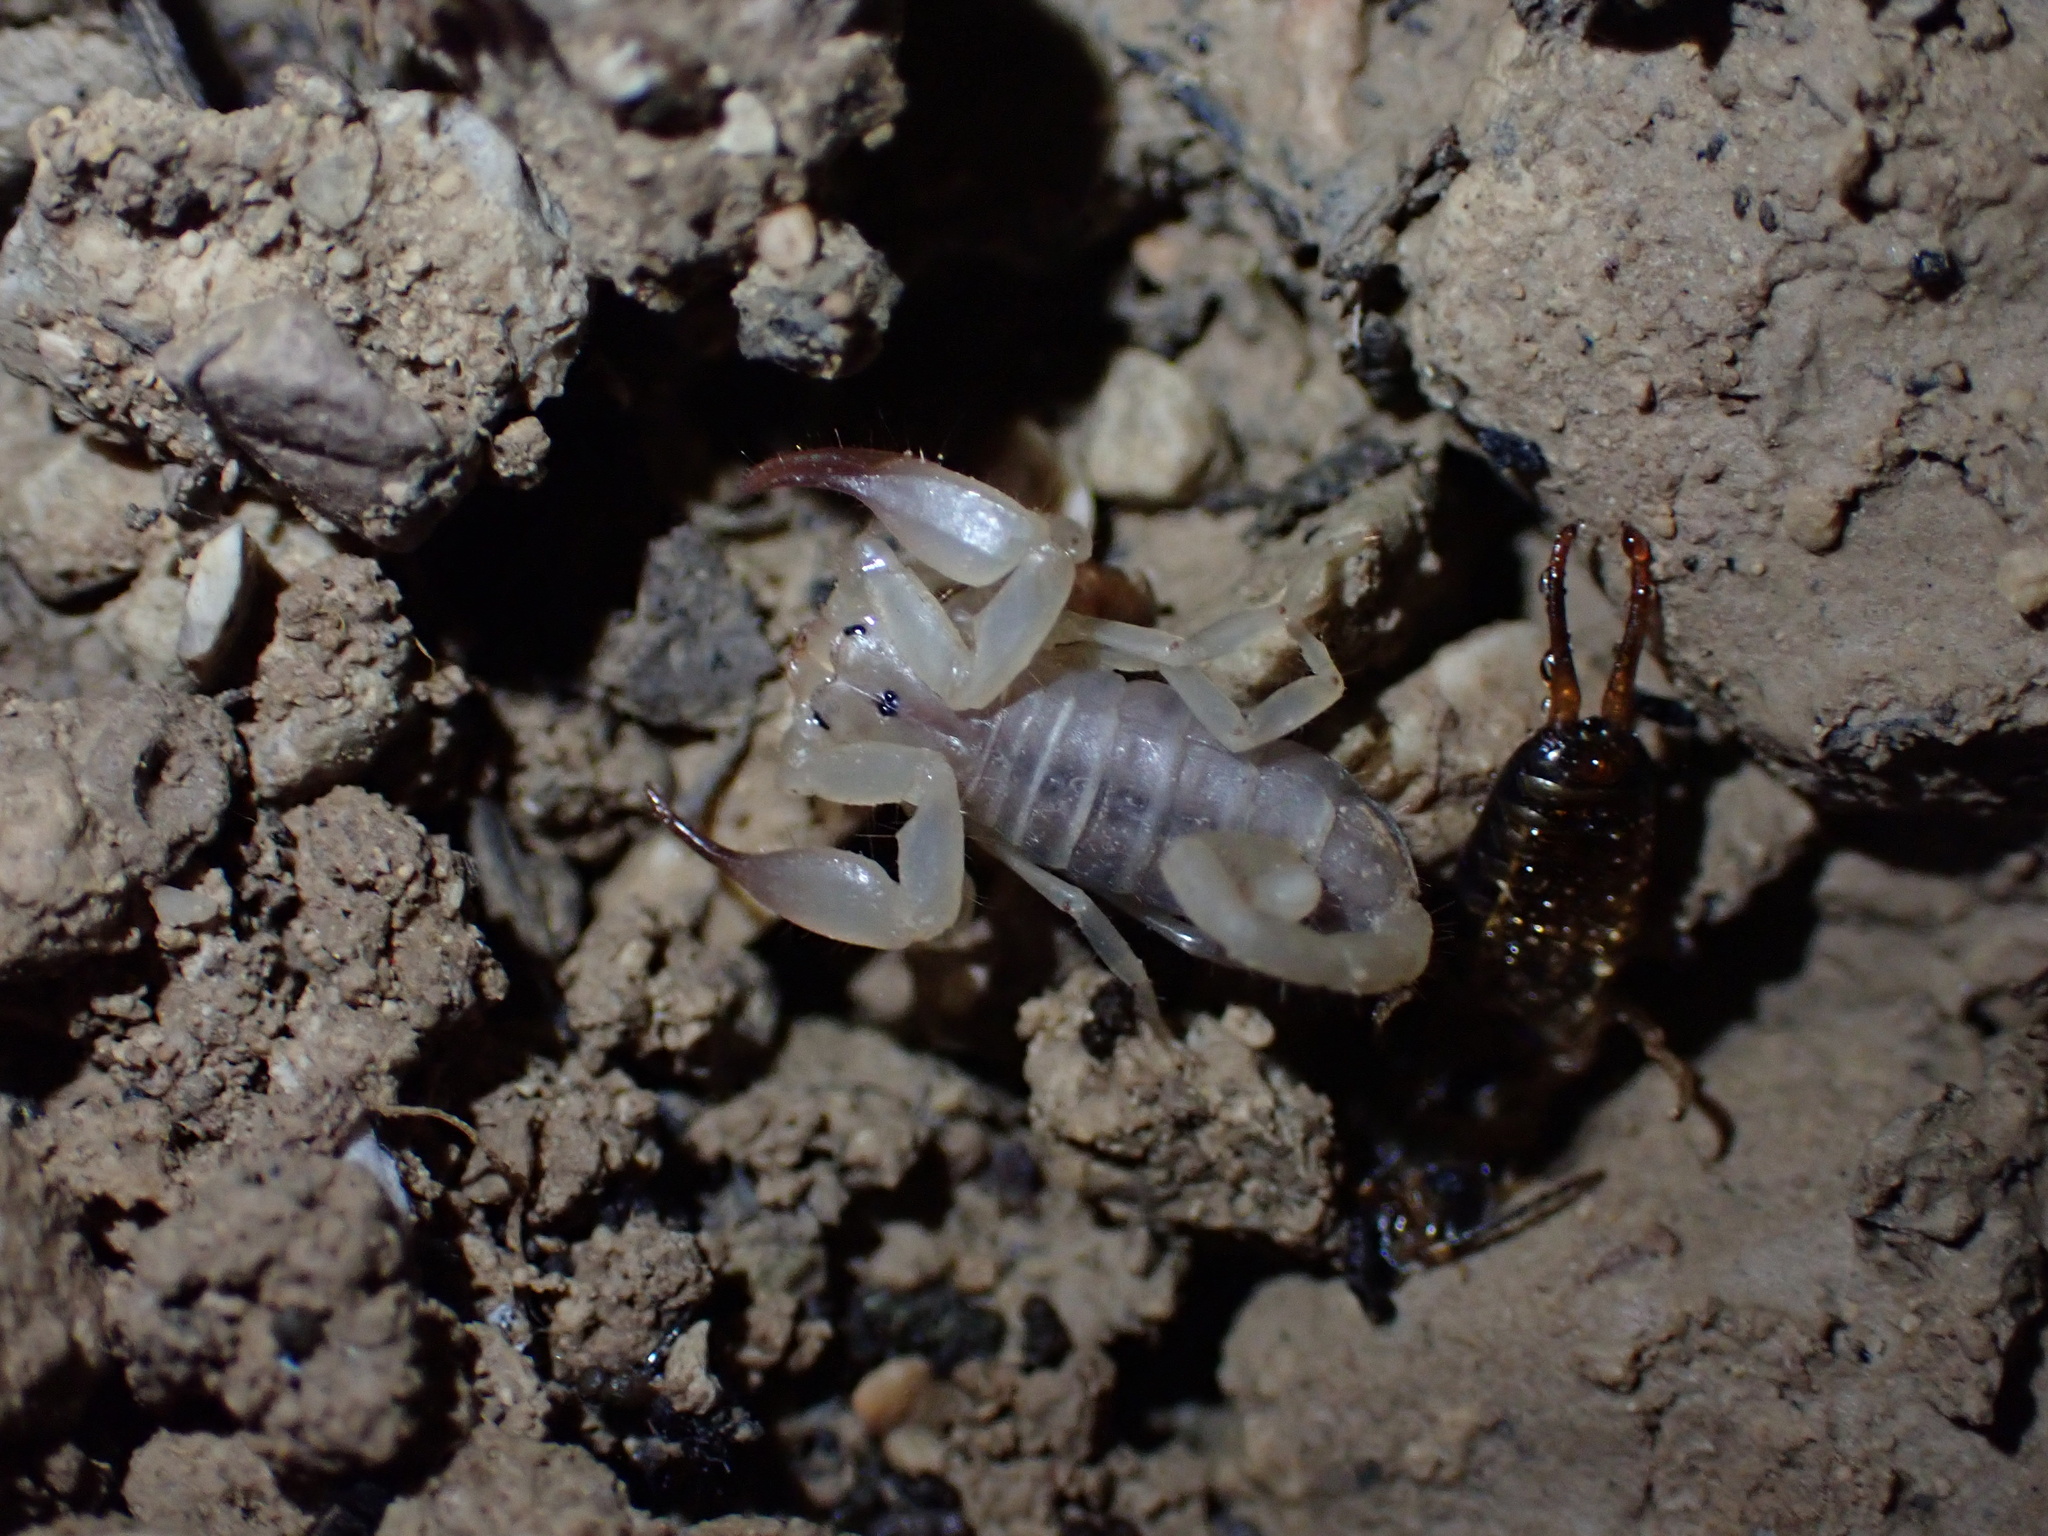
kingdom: Animalia
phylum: Arthropoda
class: Arachnida
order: Scorpiones
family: Hemiscorpiidae
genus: Hemiscorpius
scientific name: Hemiscorpius lepturus
